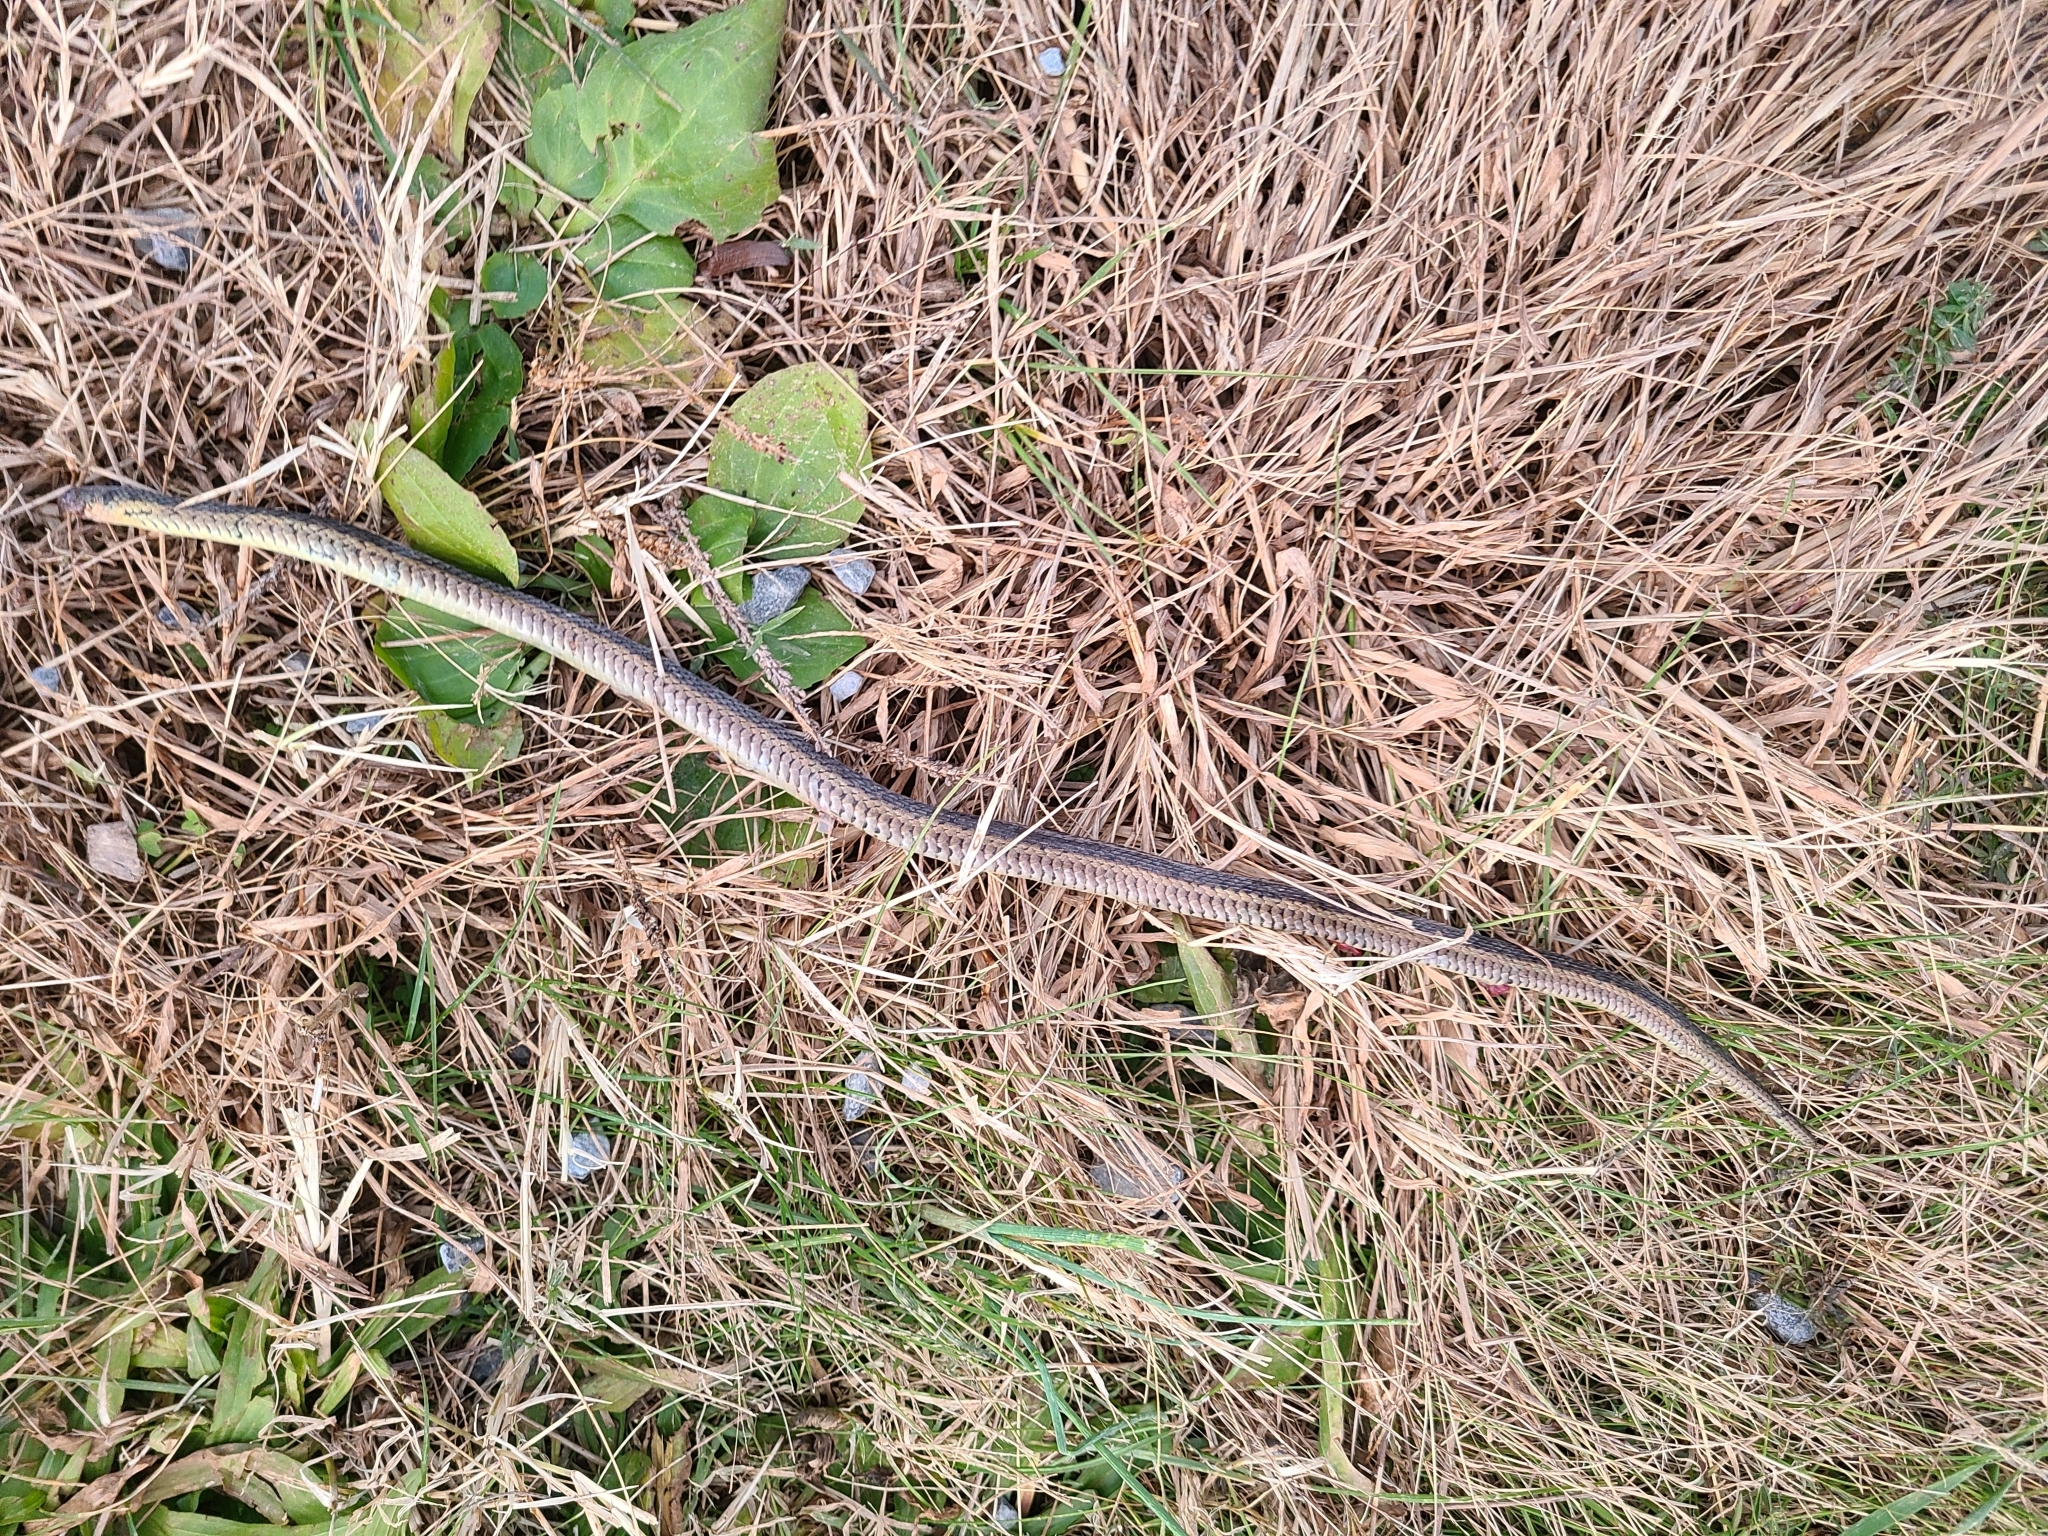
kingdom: Animalia
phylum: Chordata
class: Squamata
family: Colubridae
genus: Thamnophis
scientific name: Thamnophis sirtalis
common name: Common garter snake
